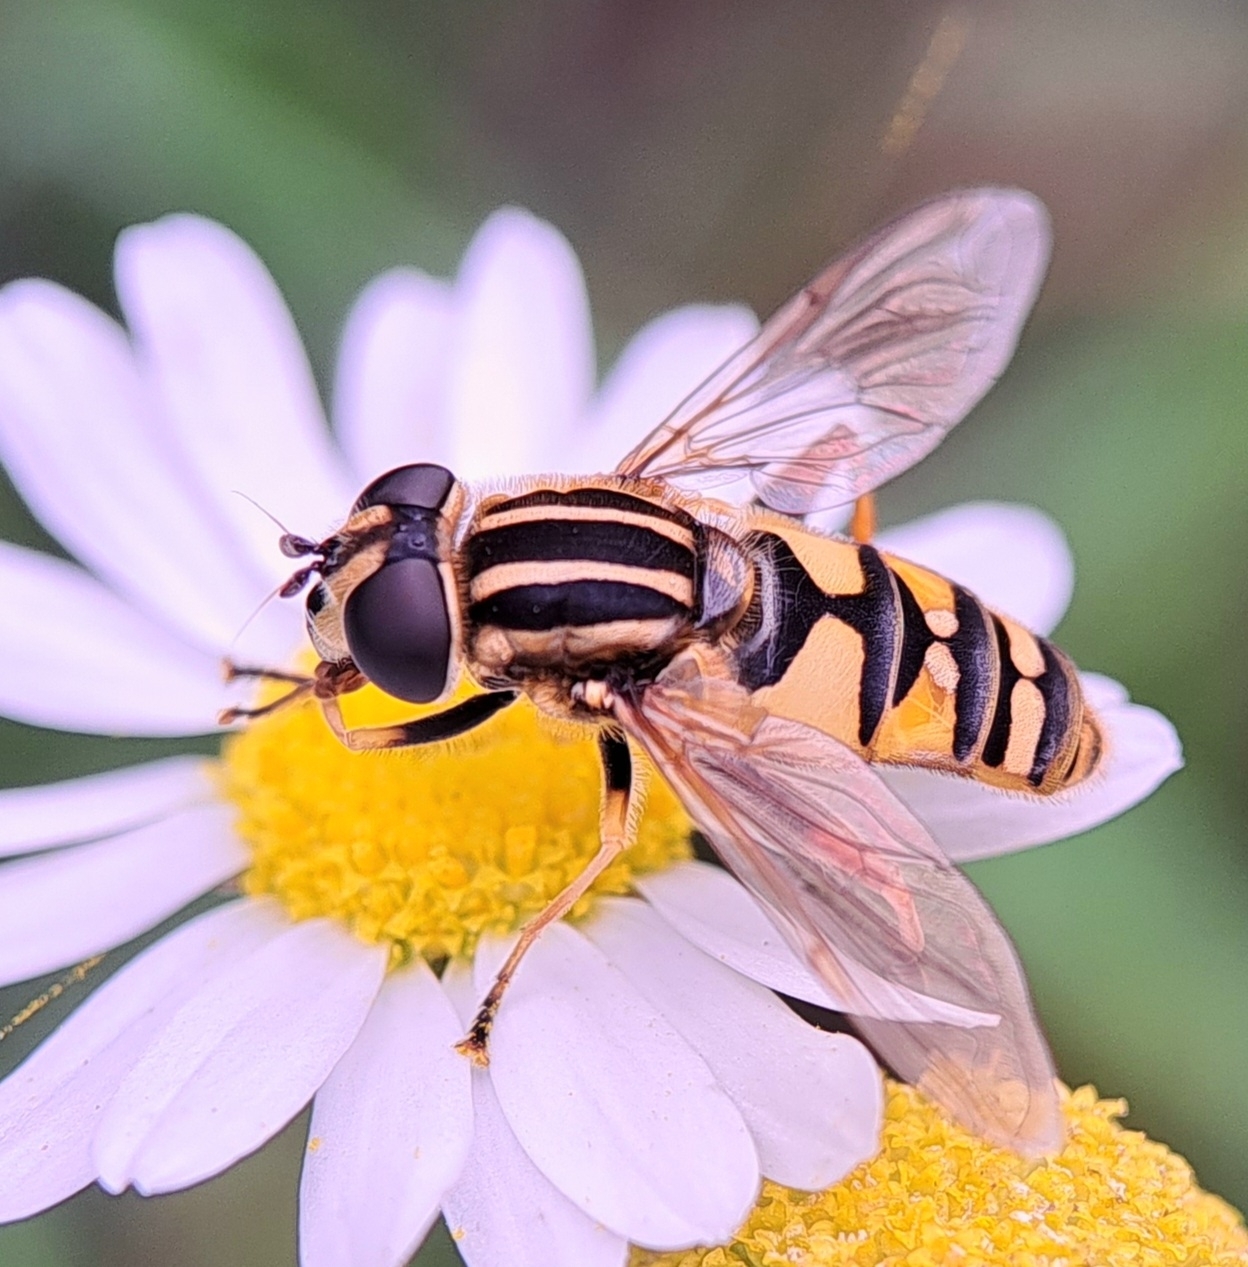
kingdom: Animalia
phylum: Arthropoda
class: Insecta
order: Diptera
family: Syrphidae
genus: Helophilus
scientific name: Helophilus pendulus
